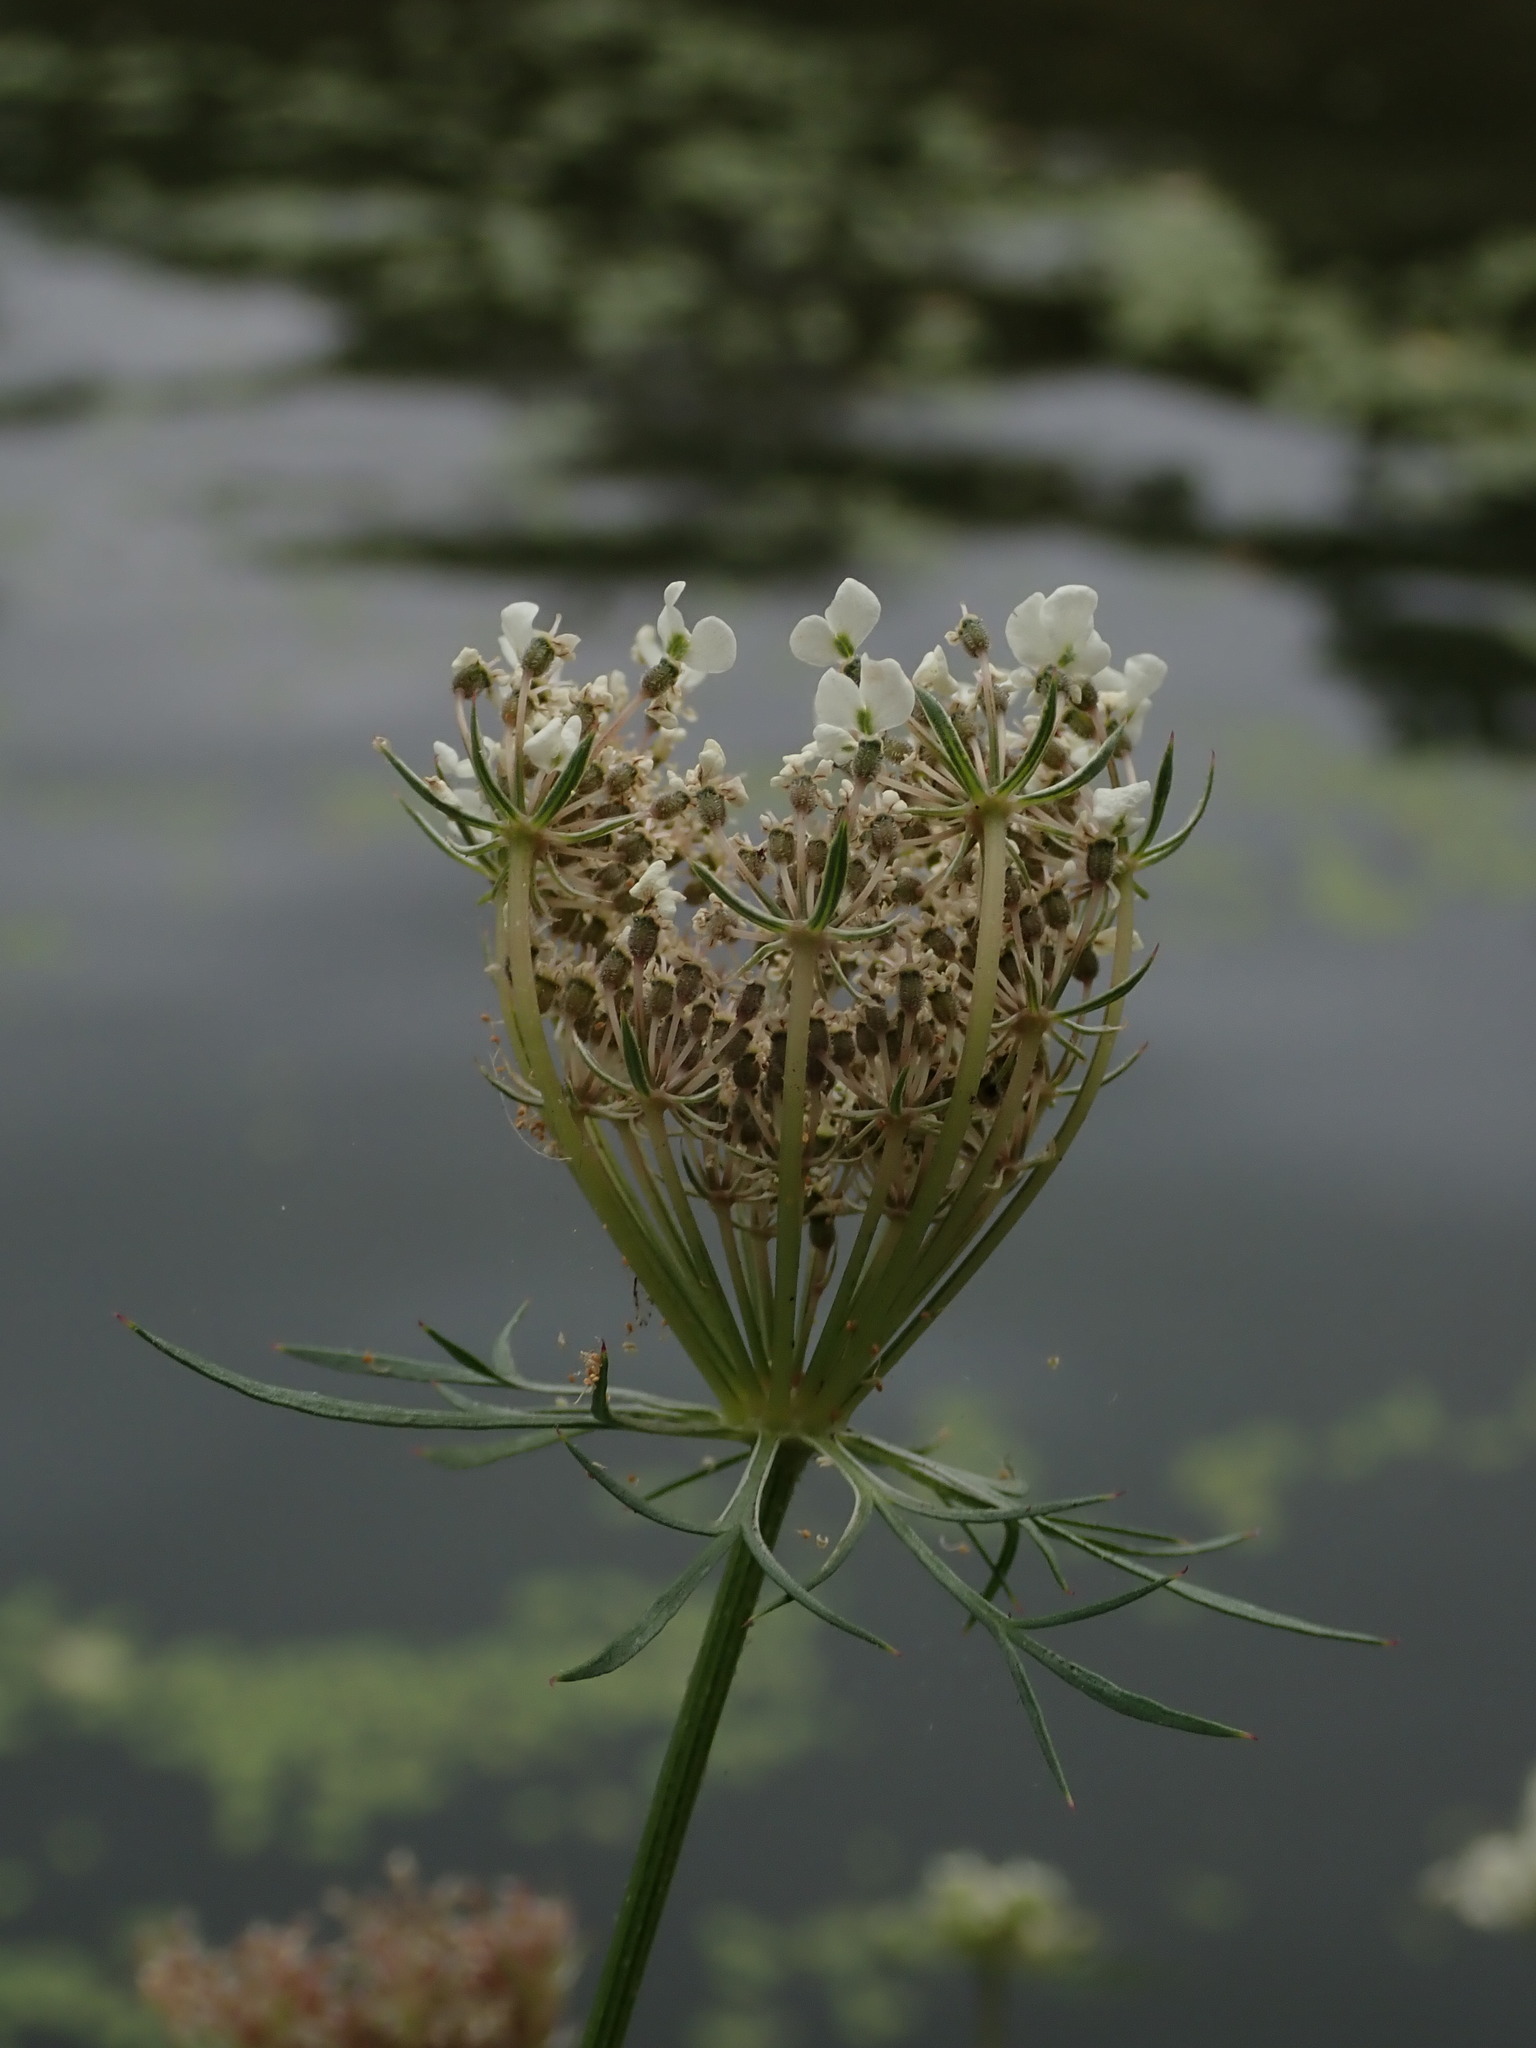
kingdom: Plantae
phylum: Tracheophyta
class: Magnoliopsida
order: Apiales
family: Apiaceae
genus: Daucus
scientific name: Daucus carota
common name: Wild carrot
